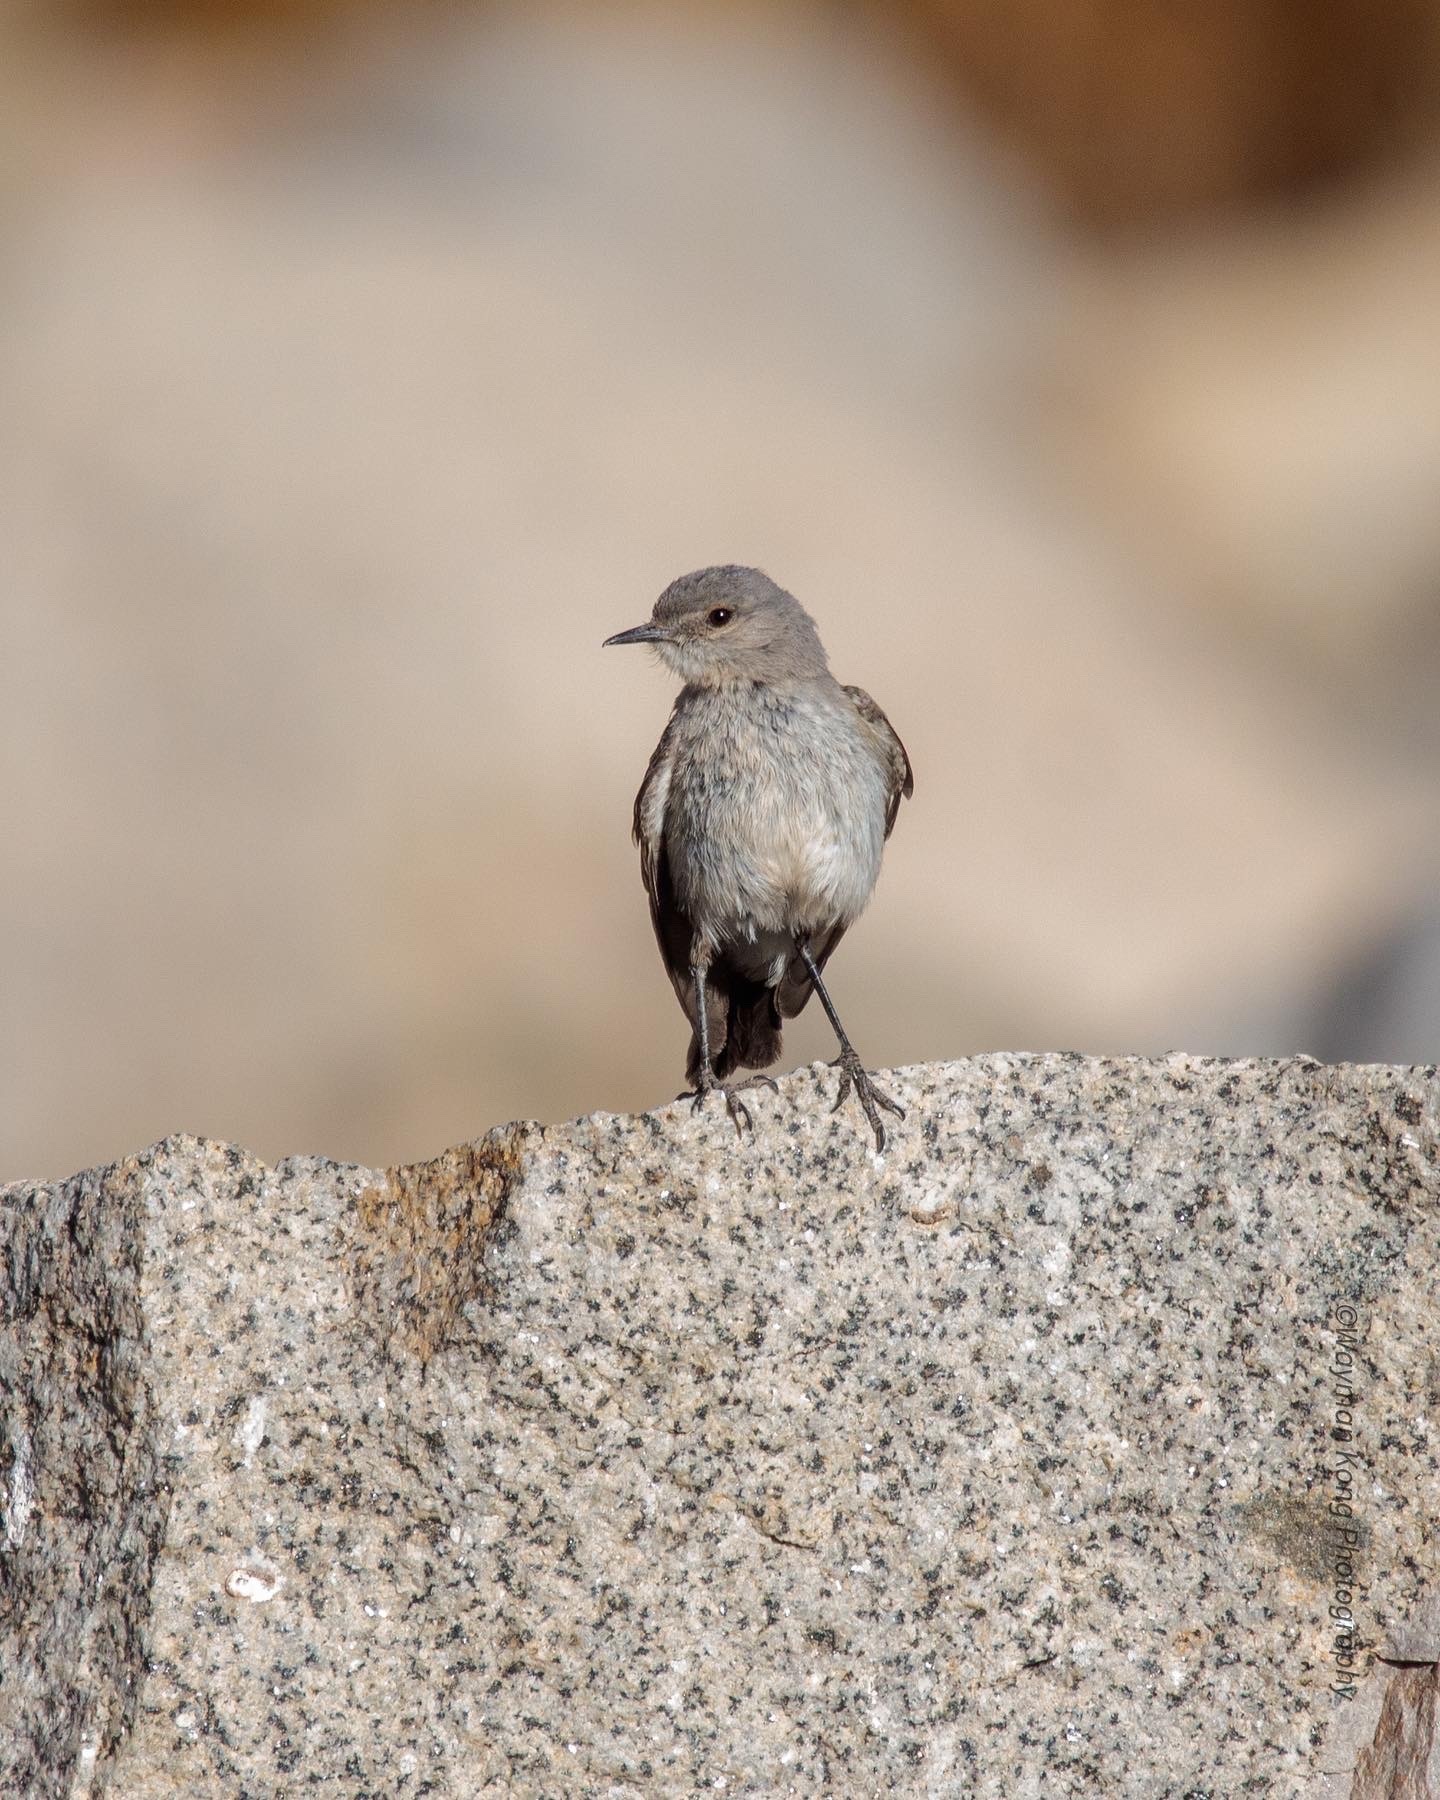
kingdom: Animalia
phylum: Chordata
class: Aves
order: Passeriformes
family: Tyrannidae
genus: Muscisaxicola
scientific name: Muscisaxicola cinereus
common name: Cinereous ground tyrant
